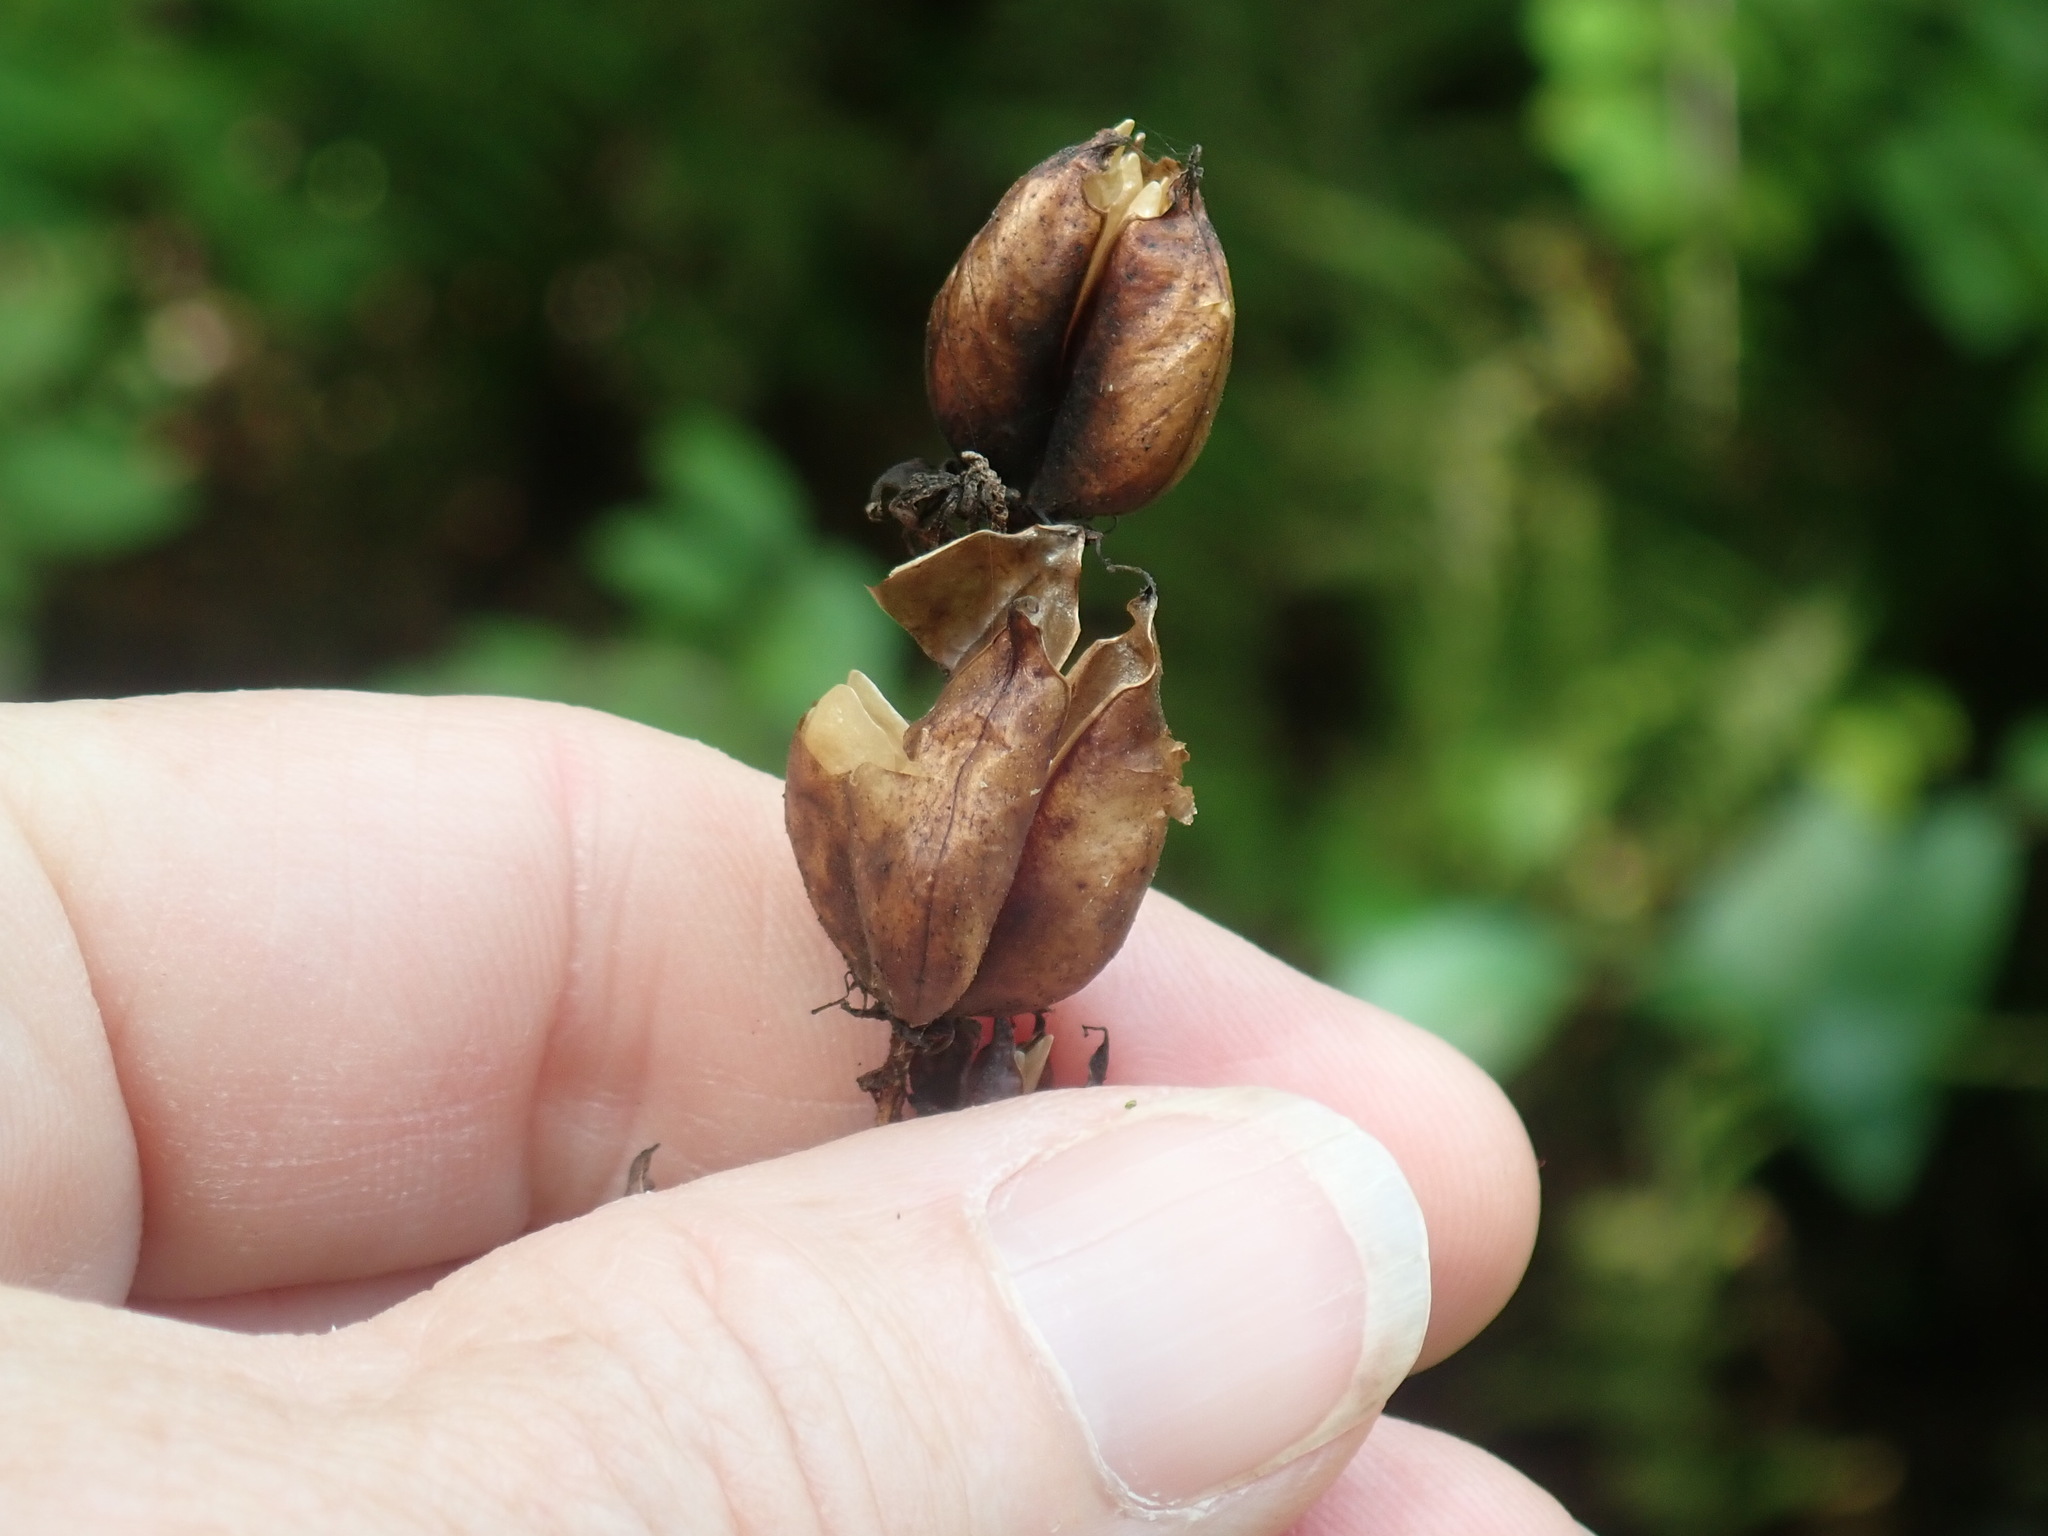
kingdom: Plantae
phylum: Tracheophyta
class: Liliopsida
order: Liliales
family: Melanthiaceae
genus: Veratrum
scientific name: Veratrum viride
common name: American false hellebore
